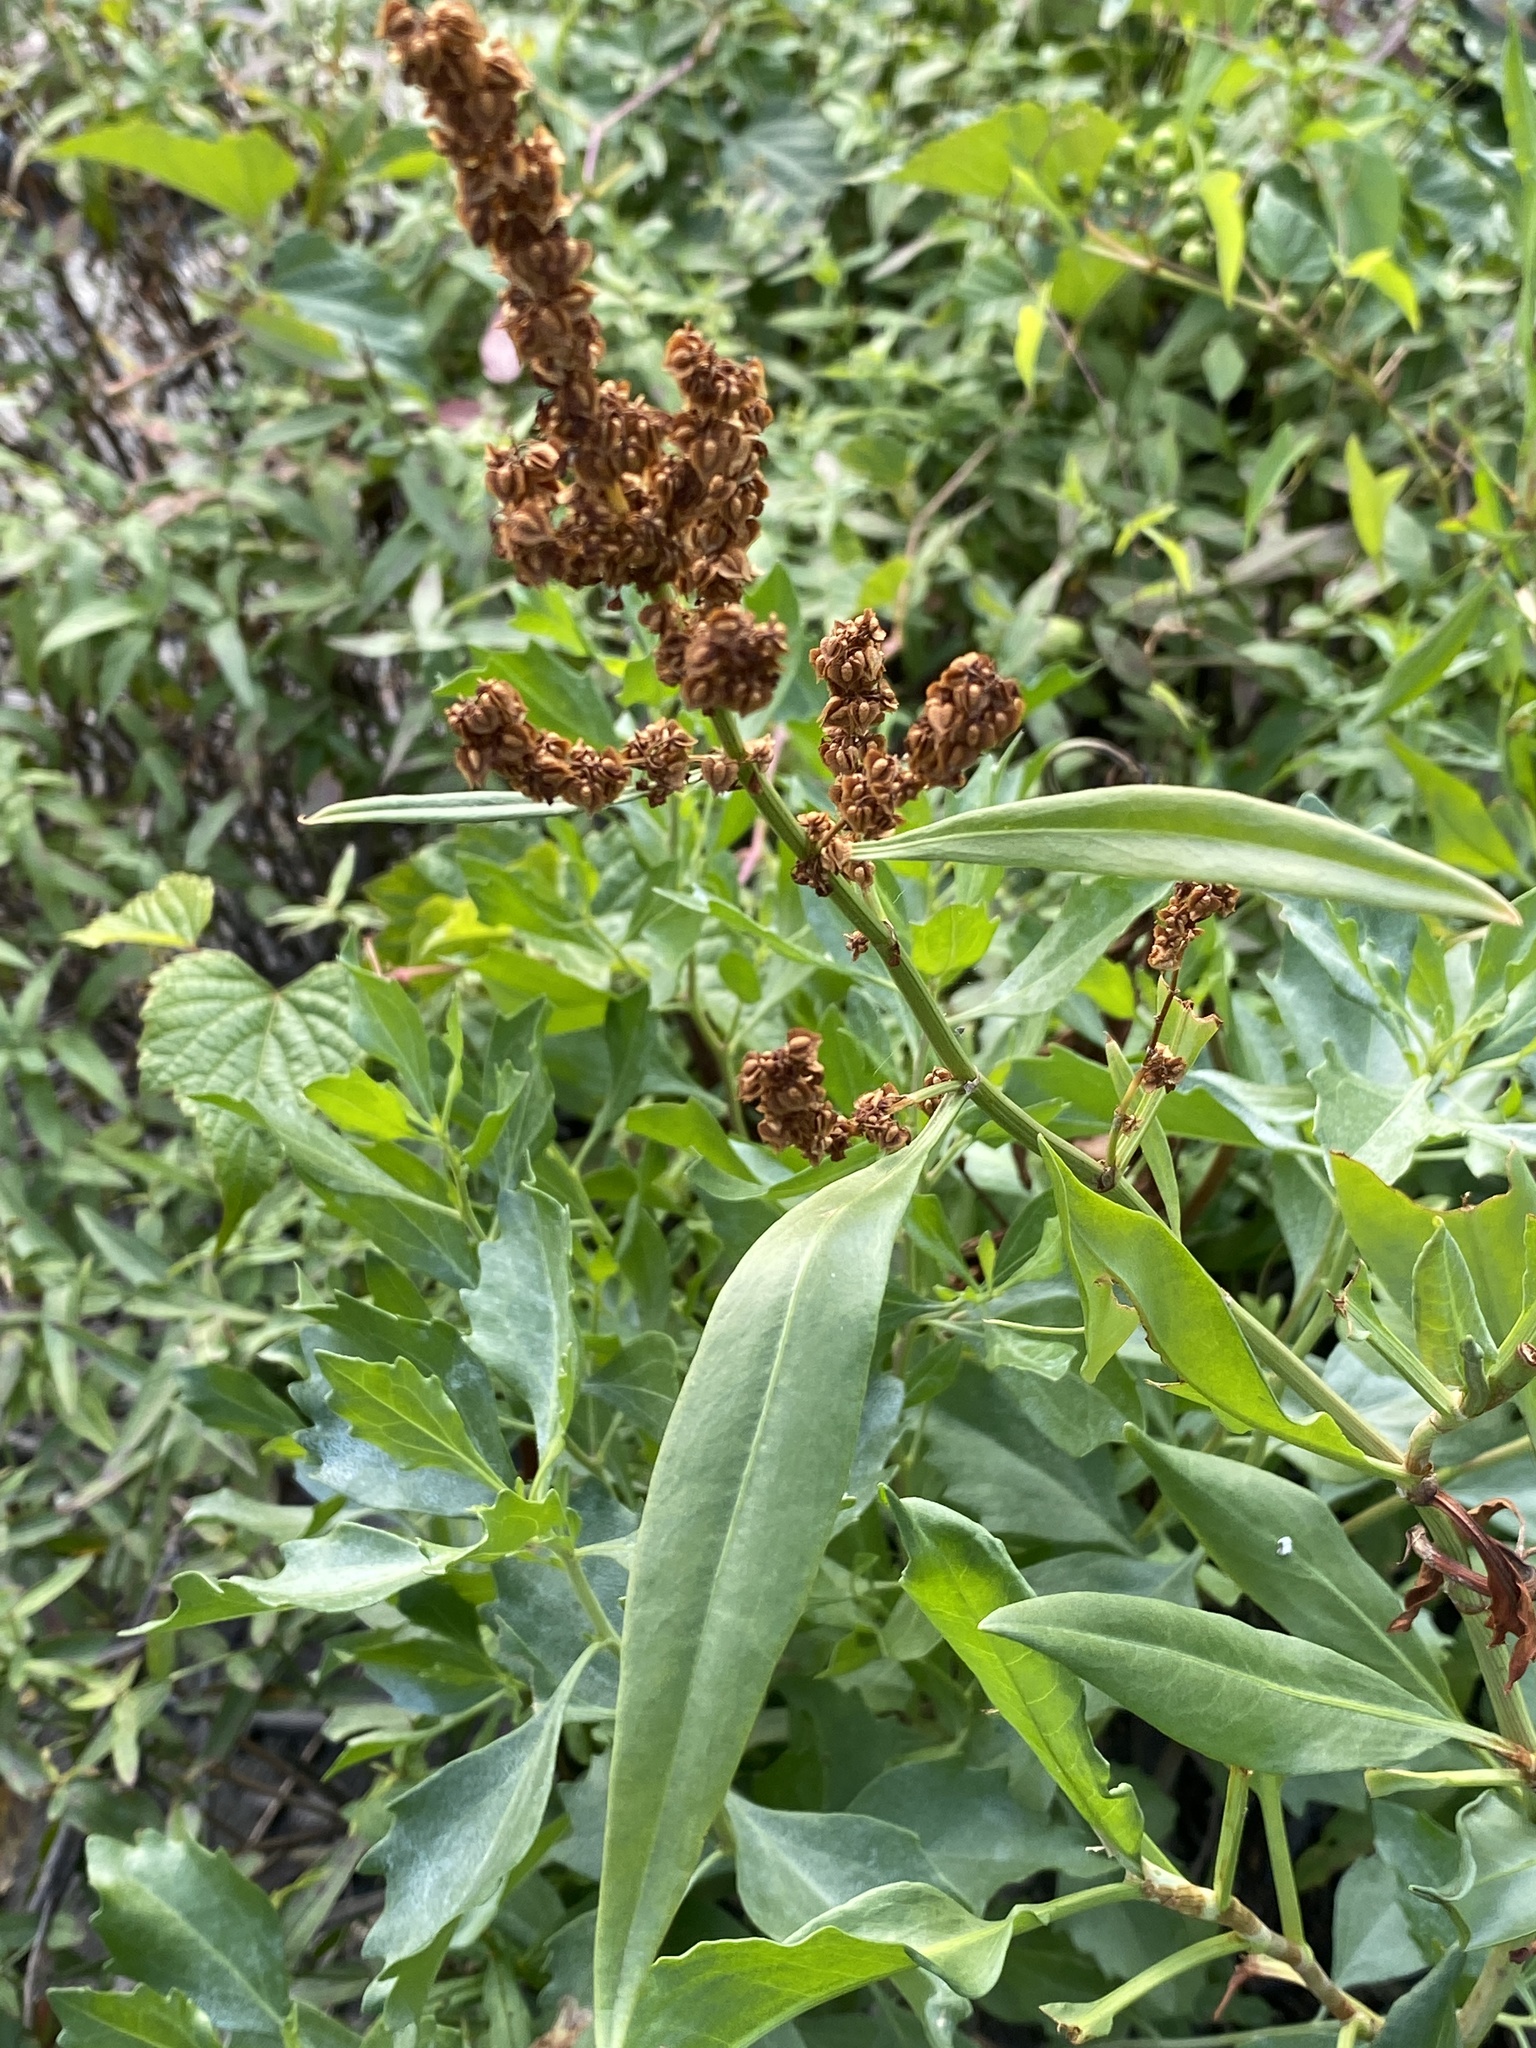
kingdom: Plantae
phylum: Tracheophyta
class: Magnoliopsida
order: Caryophyllales
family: Polygonaceae
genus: Rumex
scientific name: Rumex triangulivalvis
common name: Triangular-valve dock
